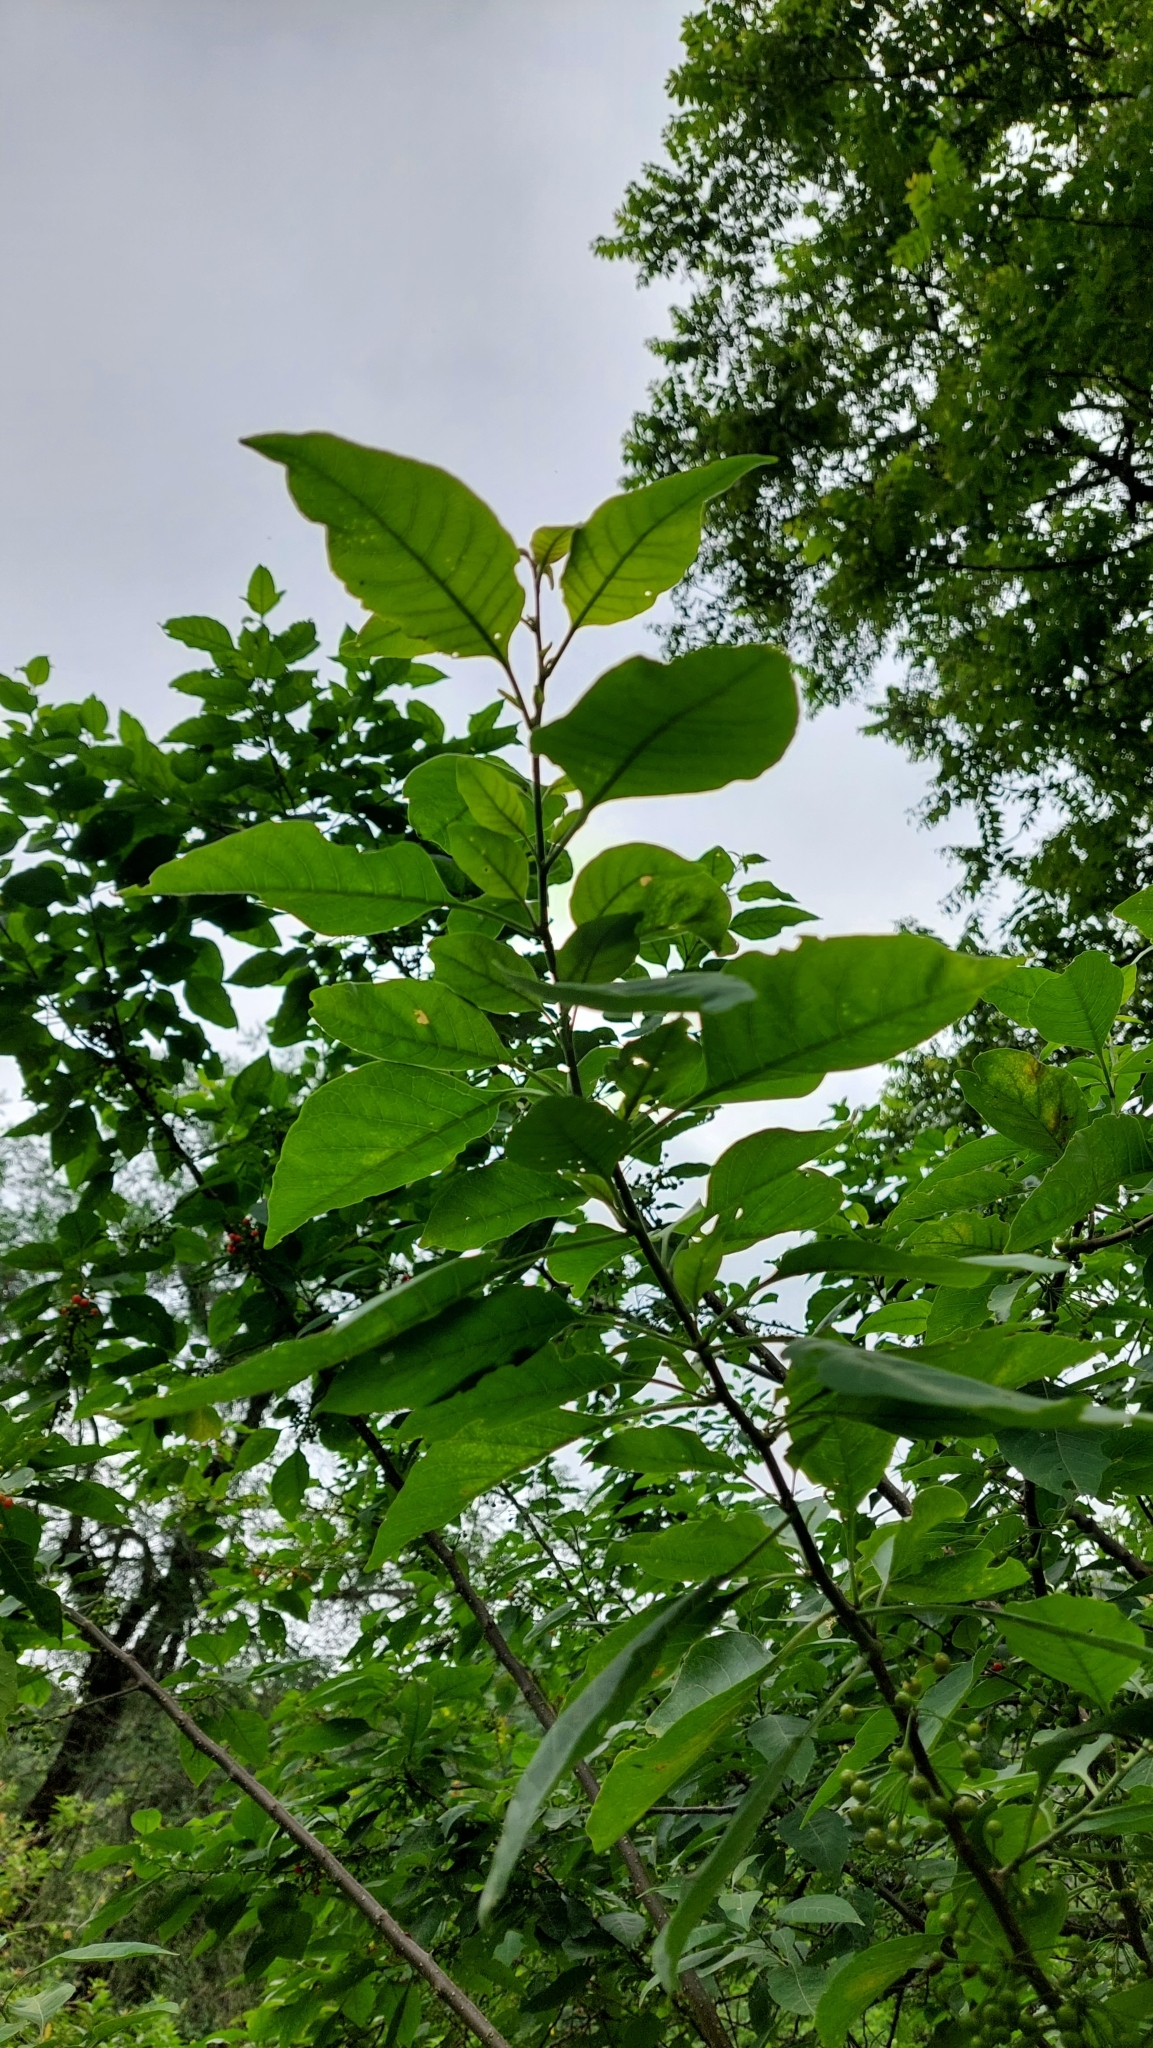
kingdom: Plantae
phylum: Tracheophyta
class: Magnoliopsida
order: Solanales
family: Solanaceae
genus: Vassobia
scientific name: Vassobia breviflora
